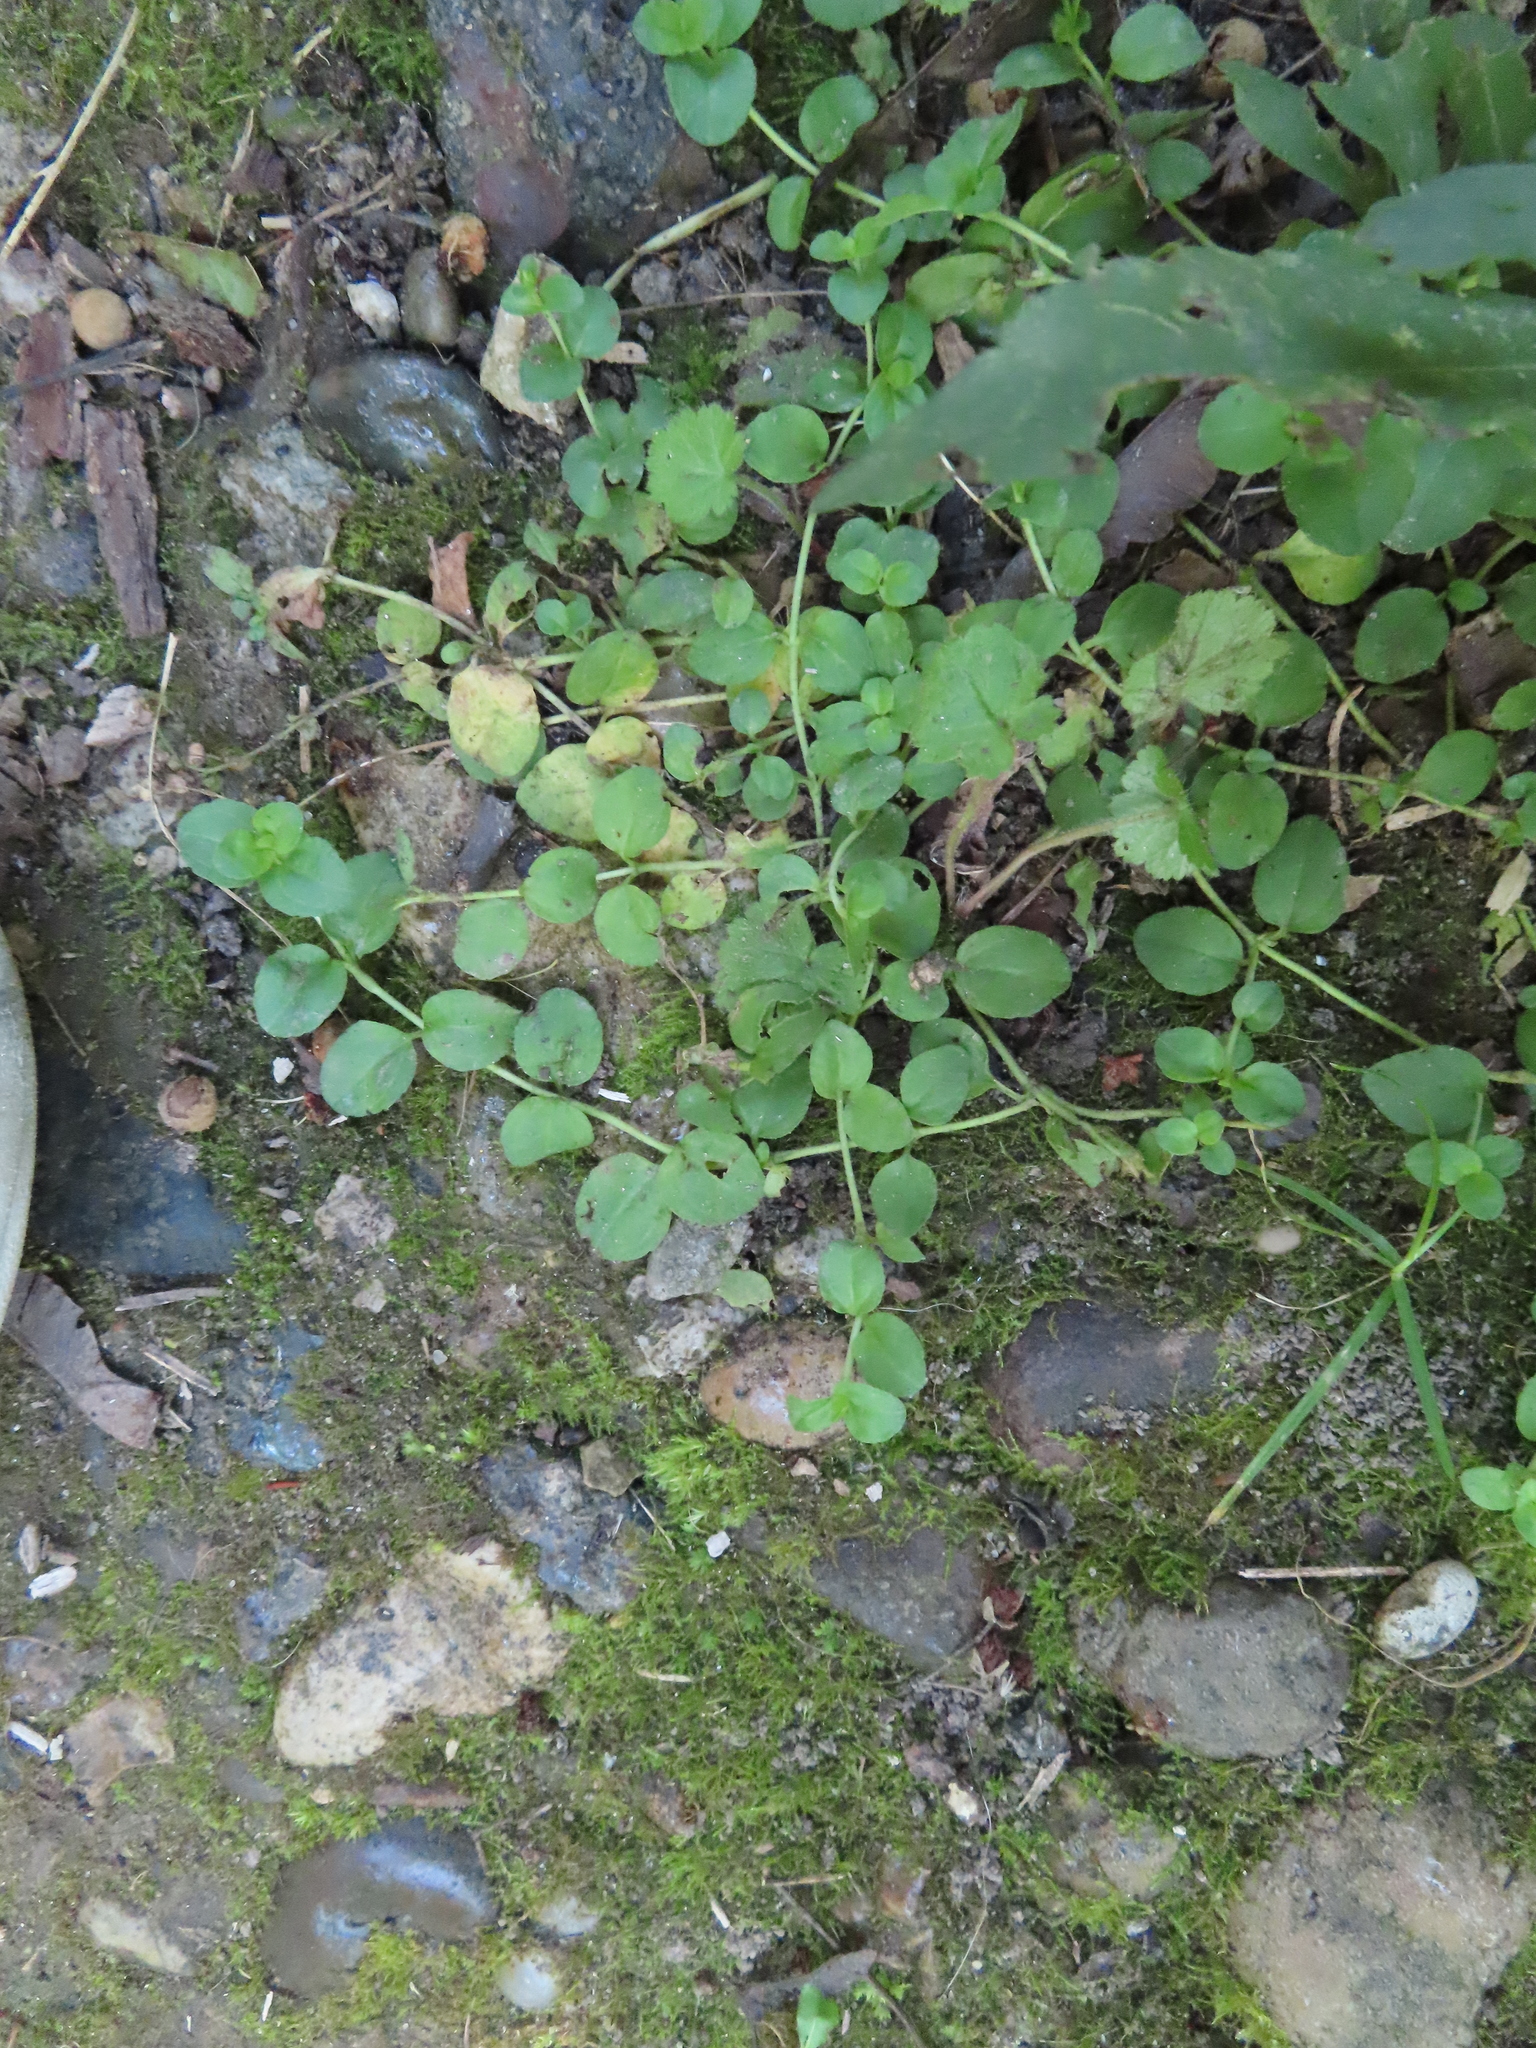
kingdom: Plantae
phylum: Tracheophyta
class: Magnoliopsida
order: Ericales
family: Primulaceae
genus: Lysimachia
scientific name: Lysimachia nummularia
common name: Moneywort
